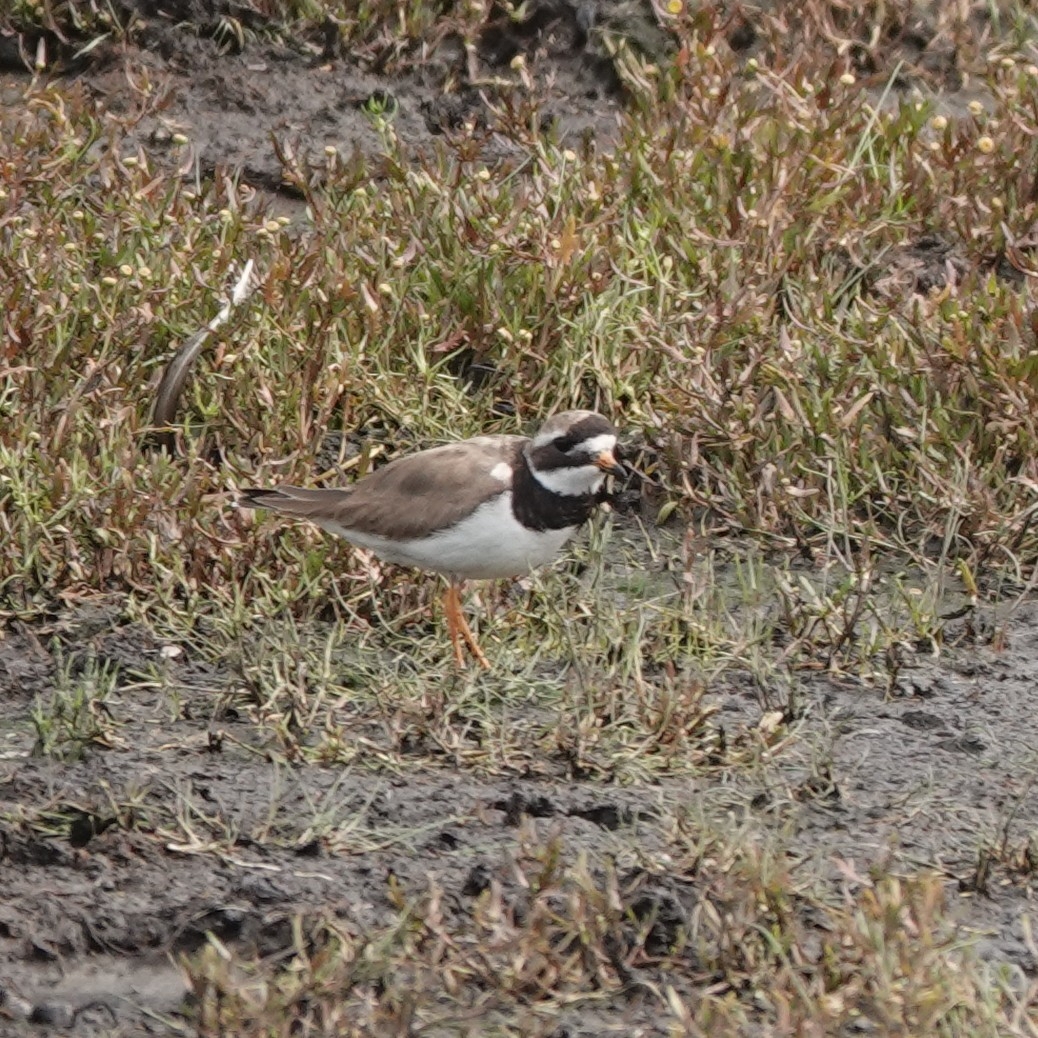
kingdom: Animalia
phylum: Chordata
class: Aves
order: Charadriiformes
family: Charadriidae
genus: Charadrius
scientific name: Charadrius hiaticula
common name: Common ringed plover
